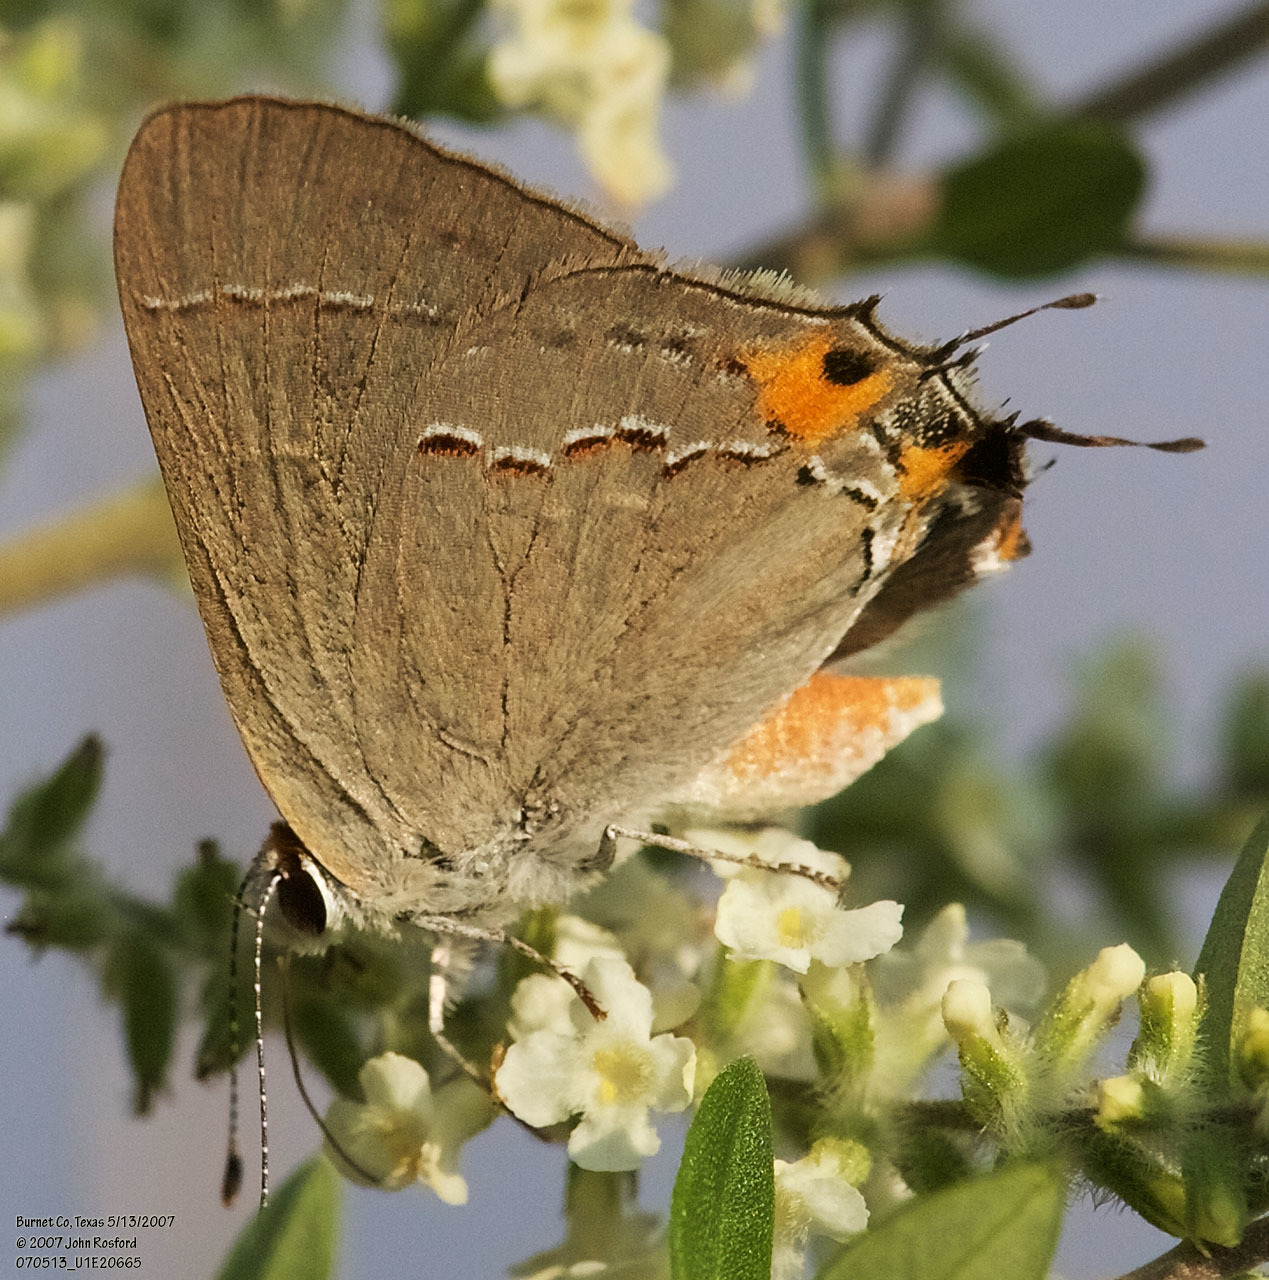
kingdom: Animalia
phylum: Arthropoda
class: Insecta
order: Lepidoptera
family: Lycaenidae
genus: Strymon
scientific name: Strymon melinus
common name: Gray hairstreak
